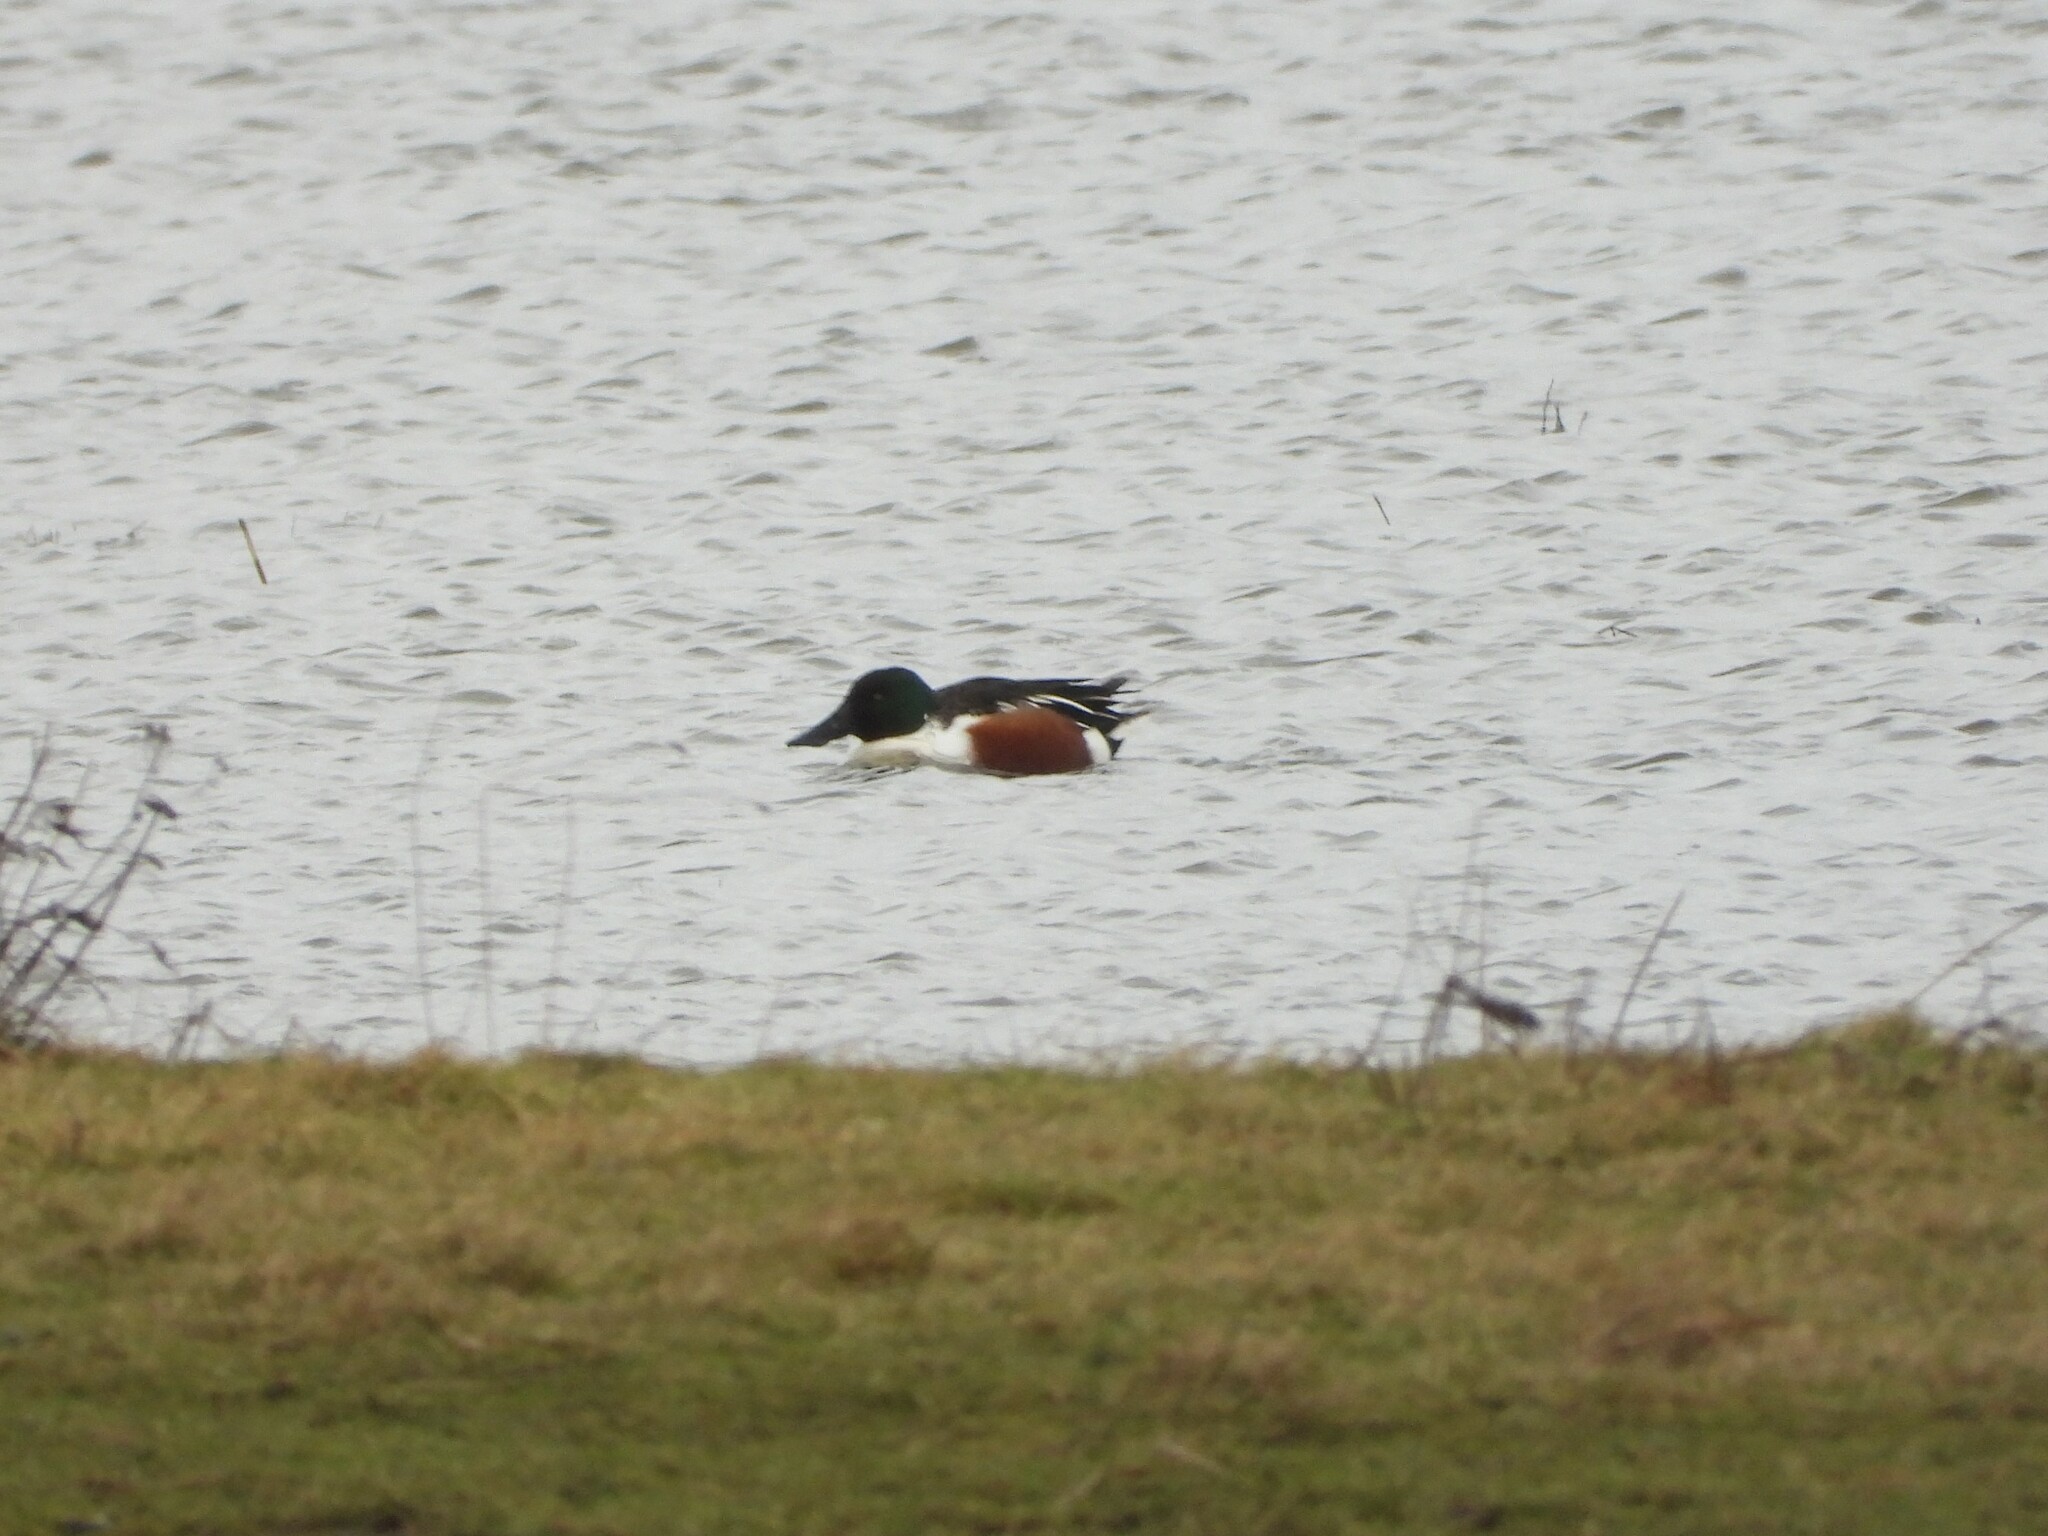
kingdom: Animalia
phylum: Chordata
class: Aves
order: Anseriformes
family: Anatidae
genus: Spatula
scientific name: Spatula clypeata
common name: Northern shoveler
